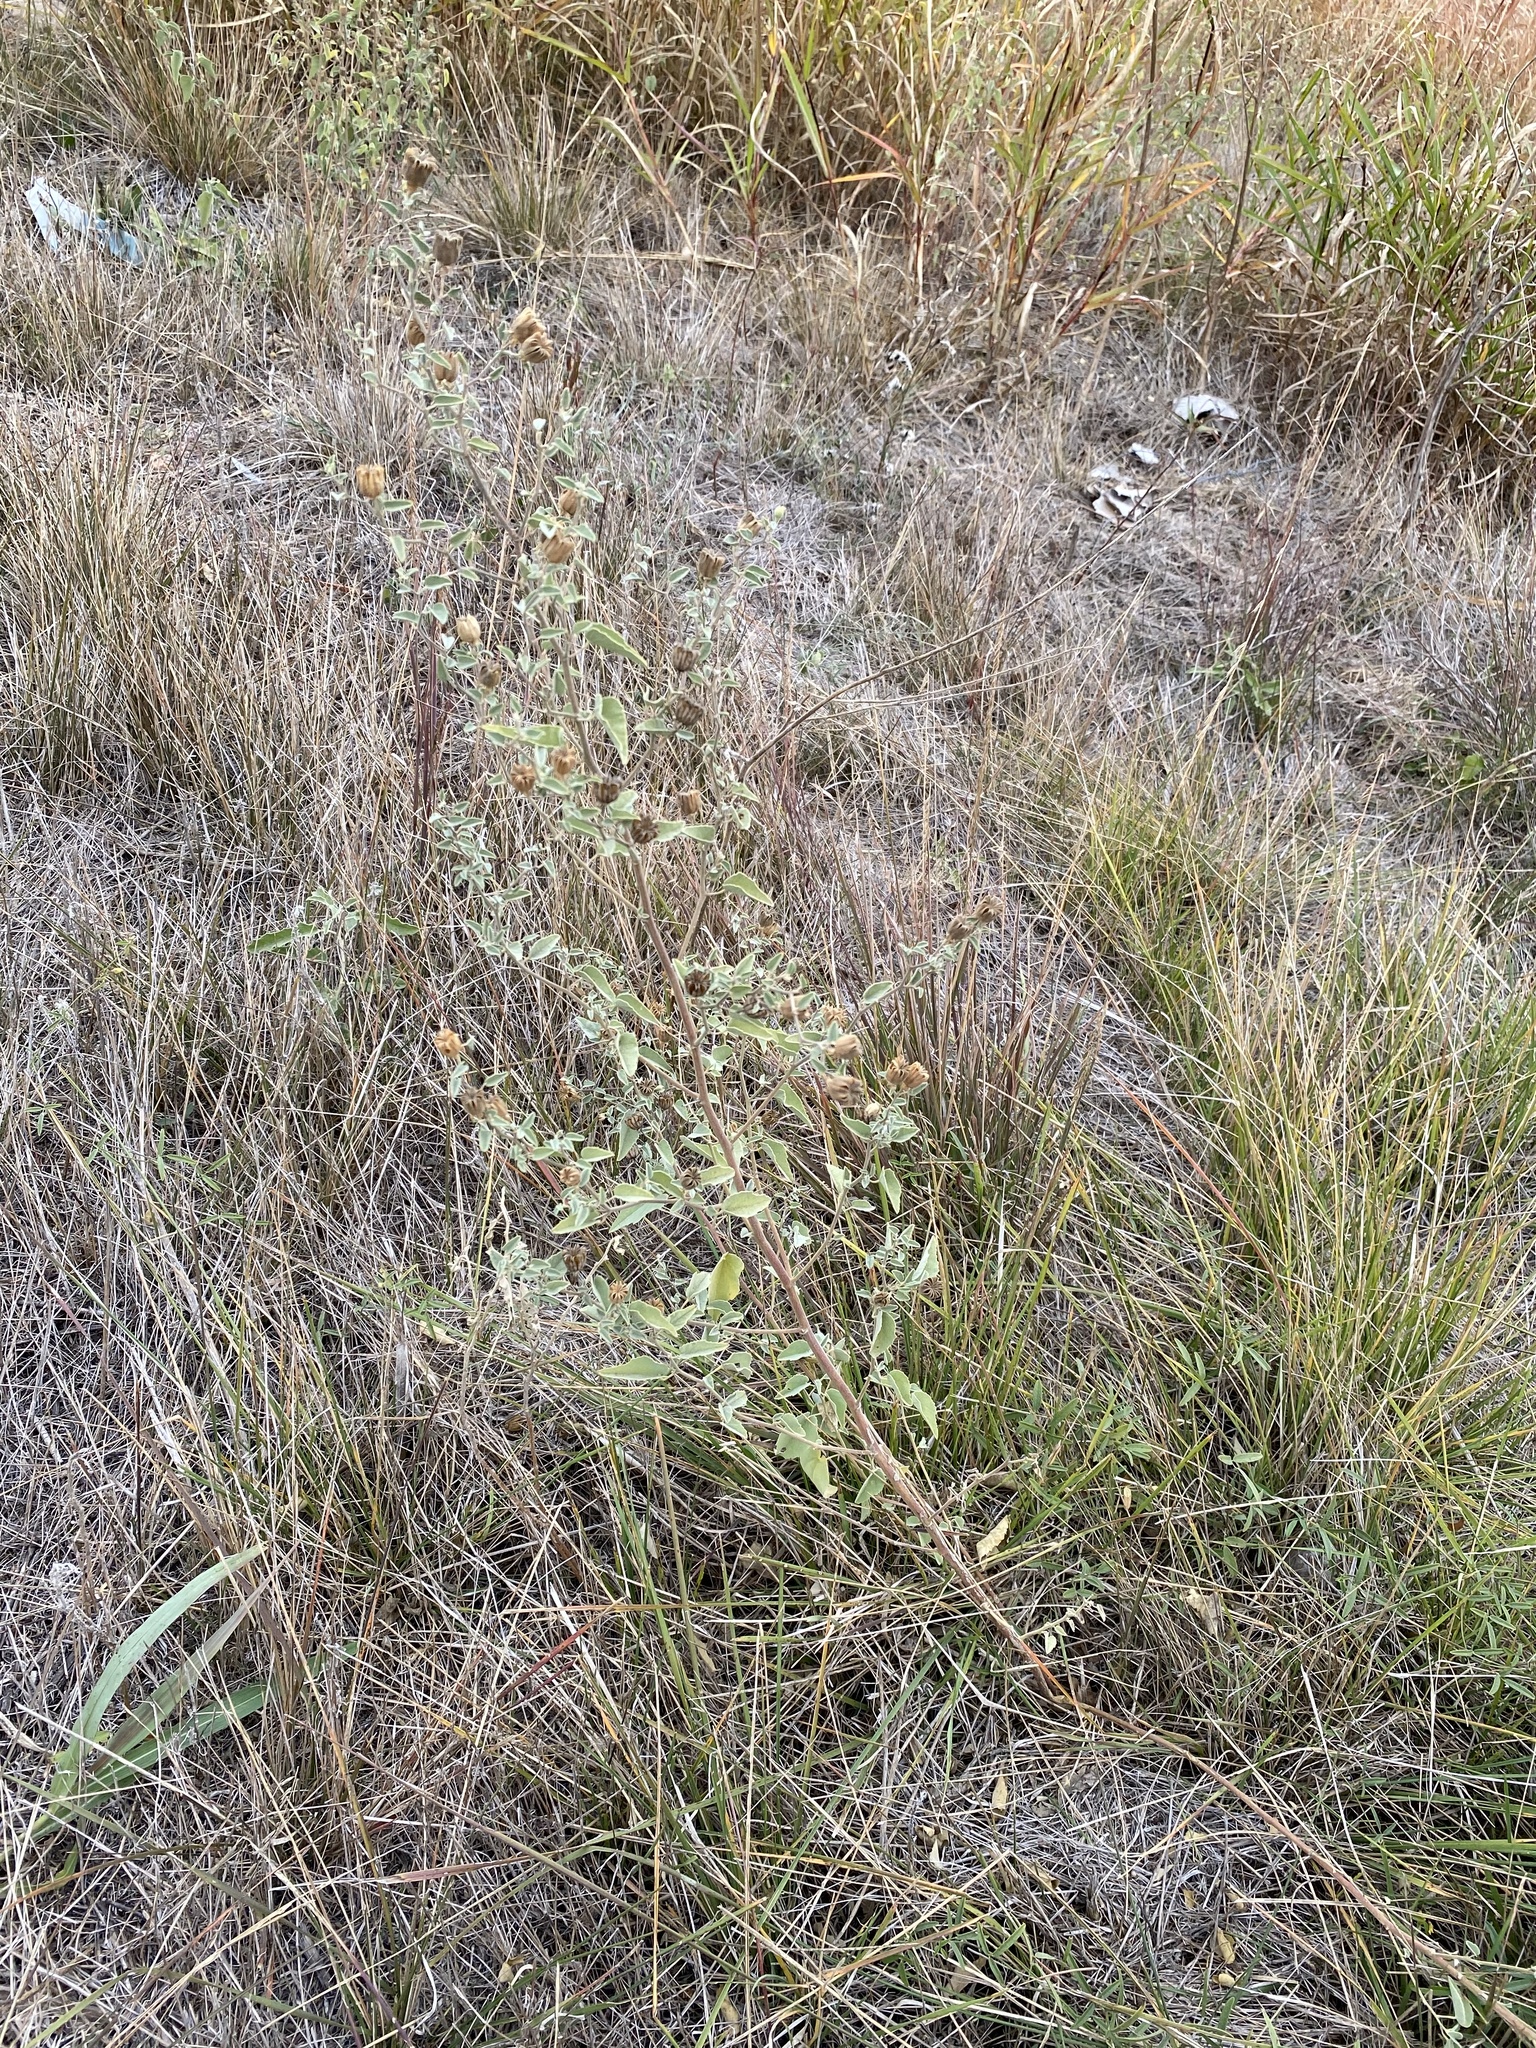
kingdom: Plantae
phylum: Tracheophyta
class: Magnoliopsida
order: Malvales
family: Malvaceae
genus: Abutilon
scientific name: Abutilon fruticosum
